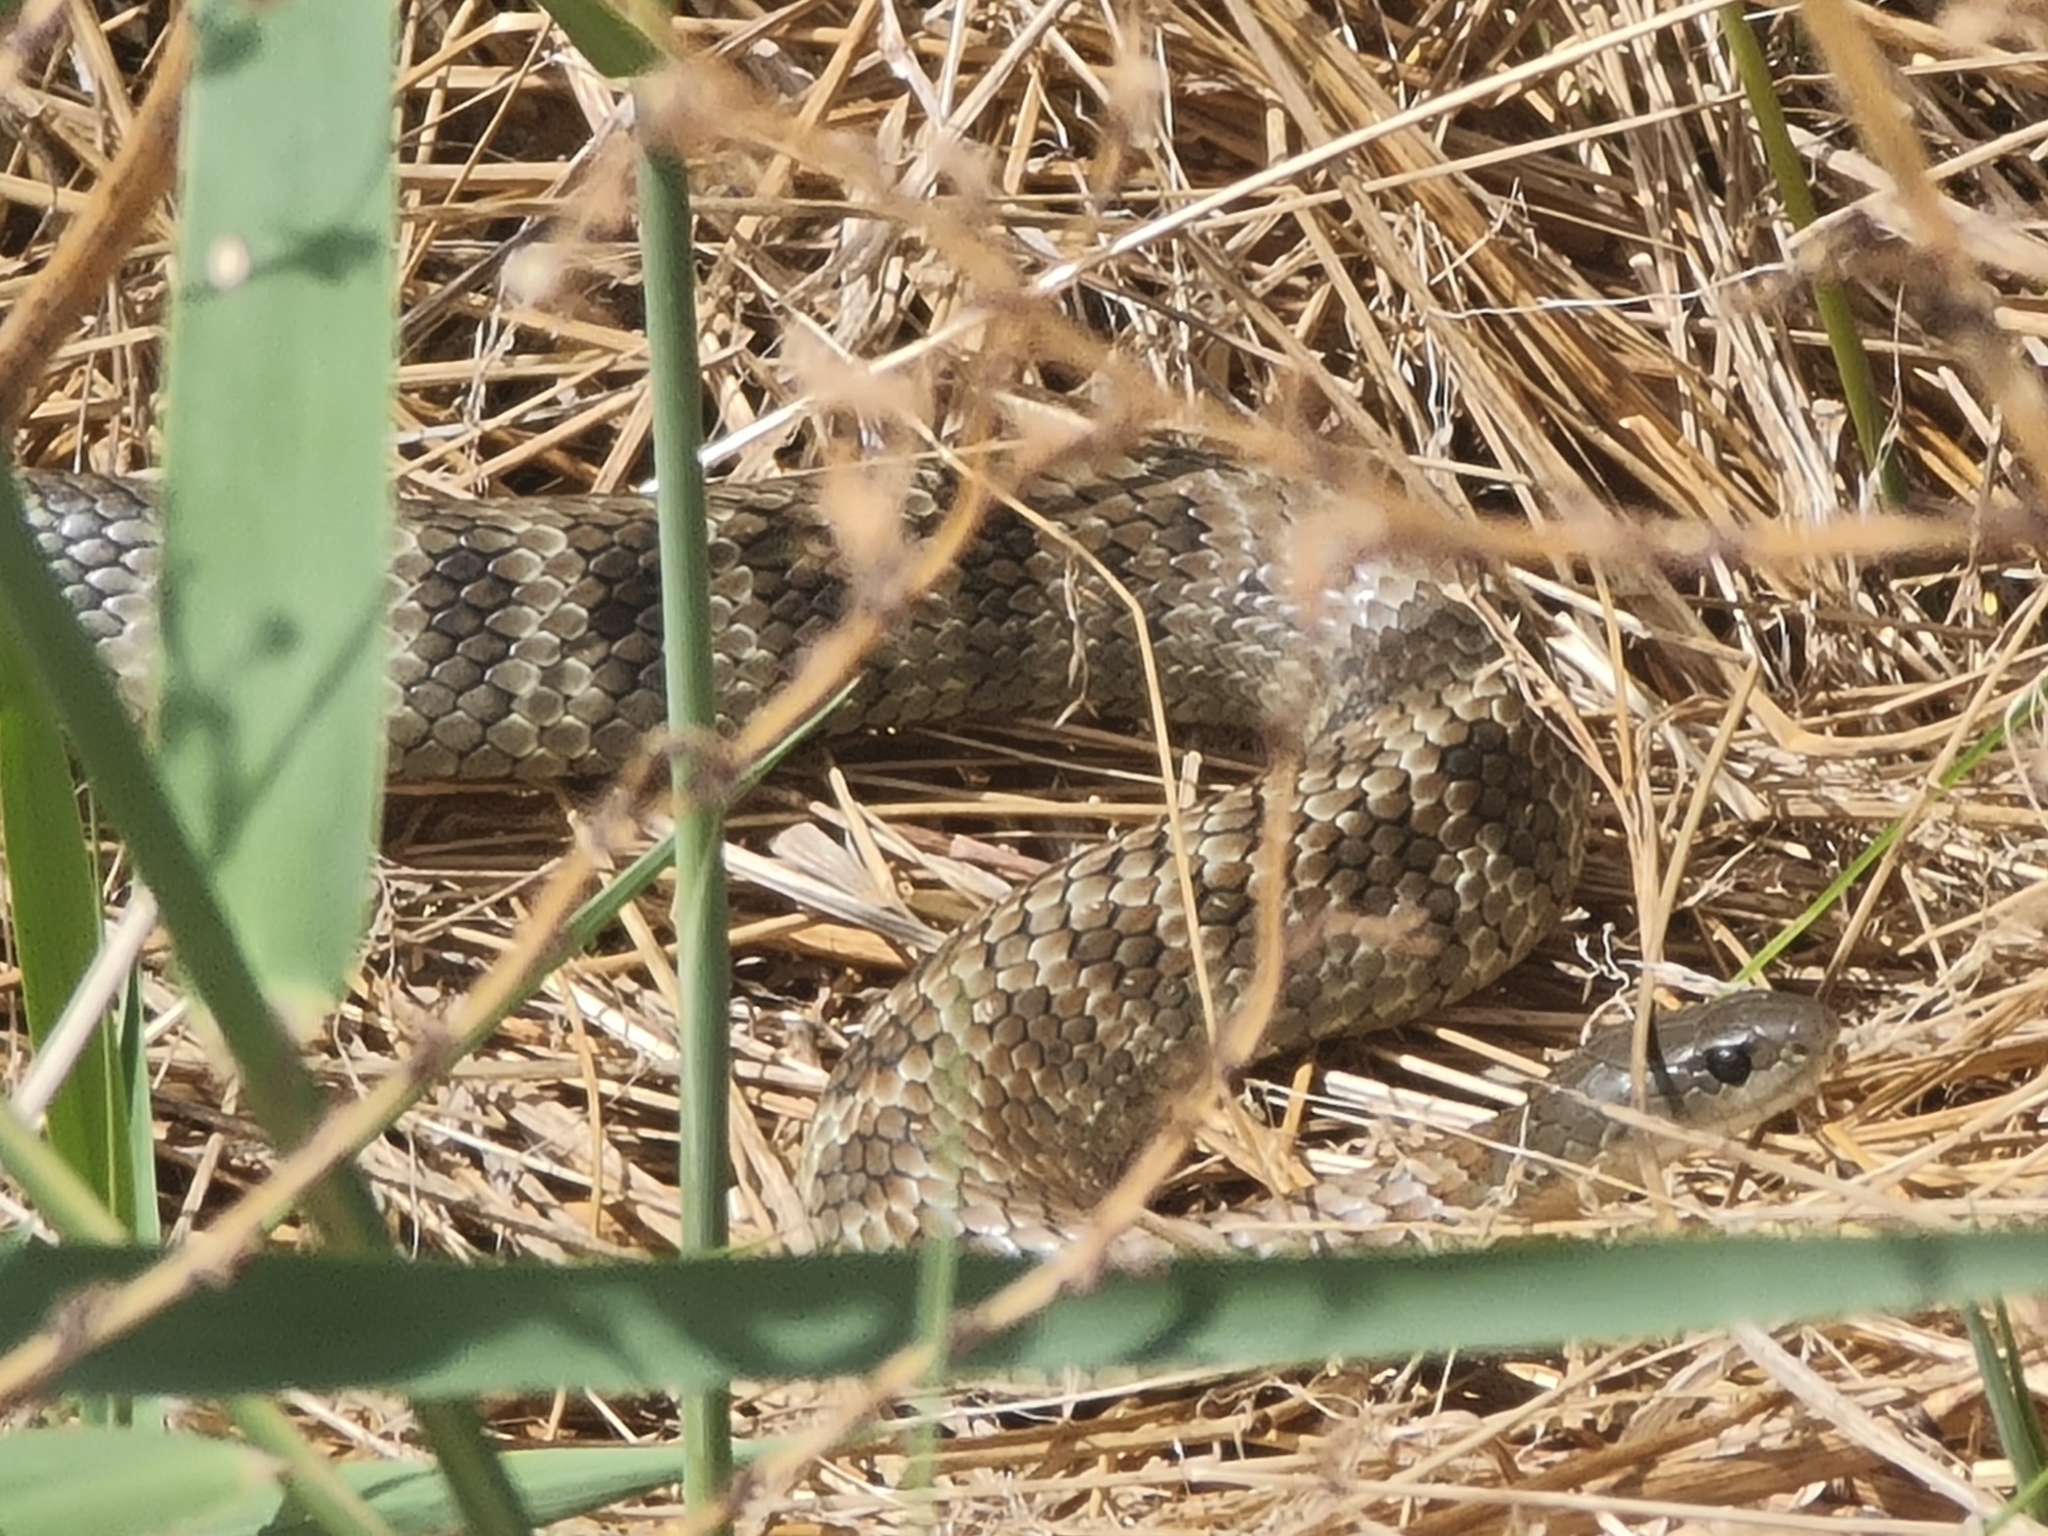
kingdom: Animalia
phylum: Chordata
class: Squamata
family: Elapidae
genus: Notechis
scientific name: Notechis scutatus
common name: Mainland tiger snake
